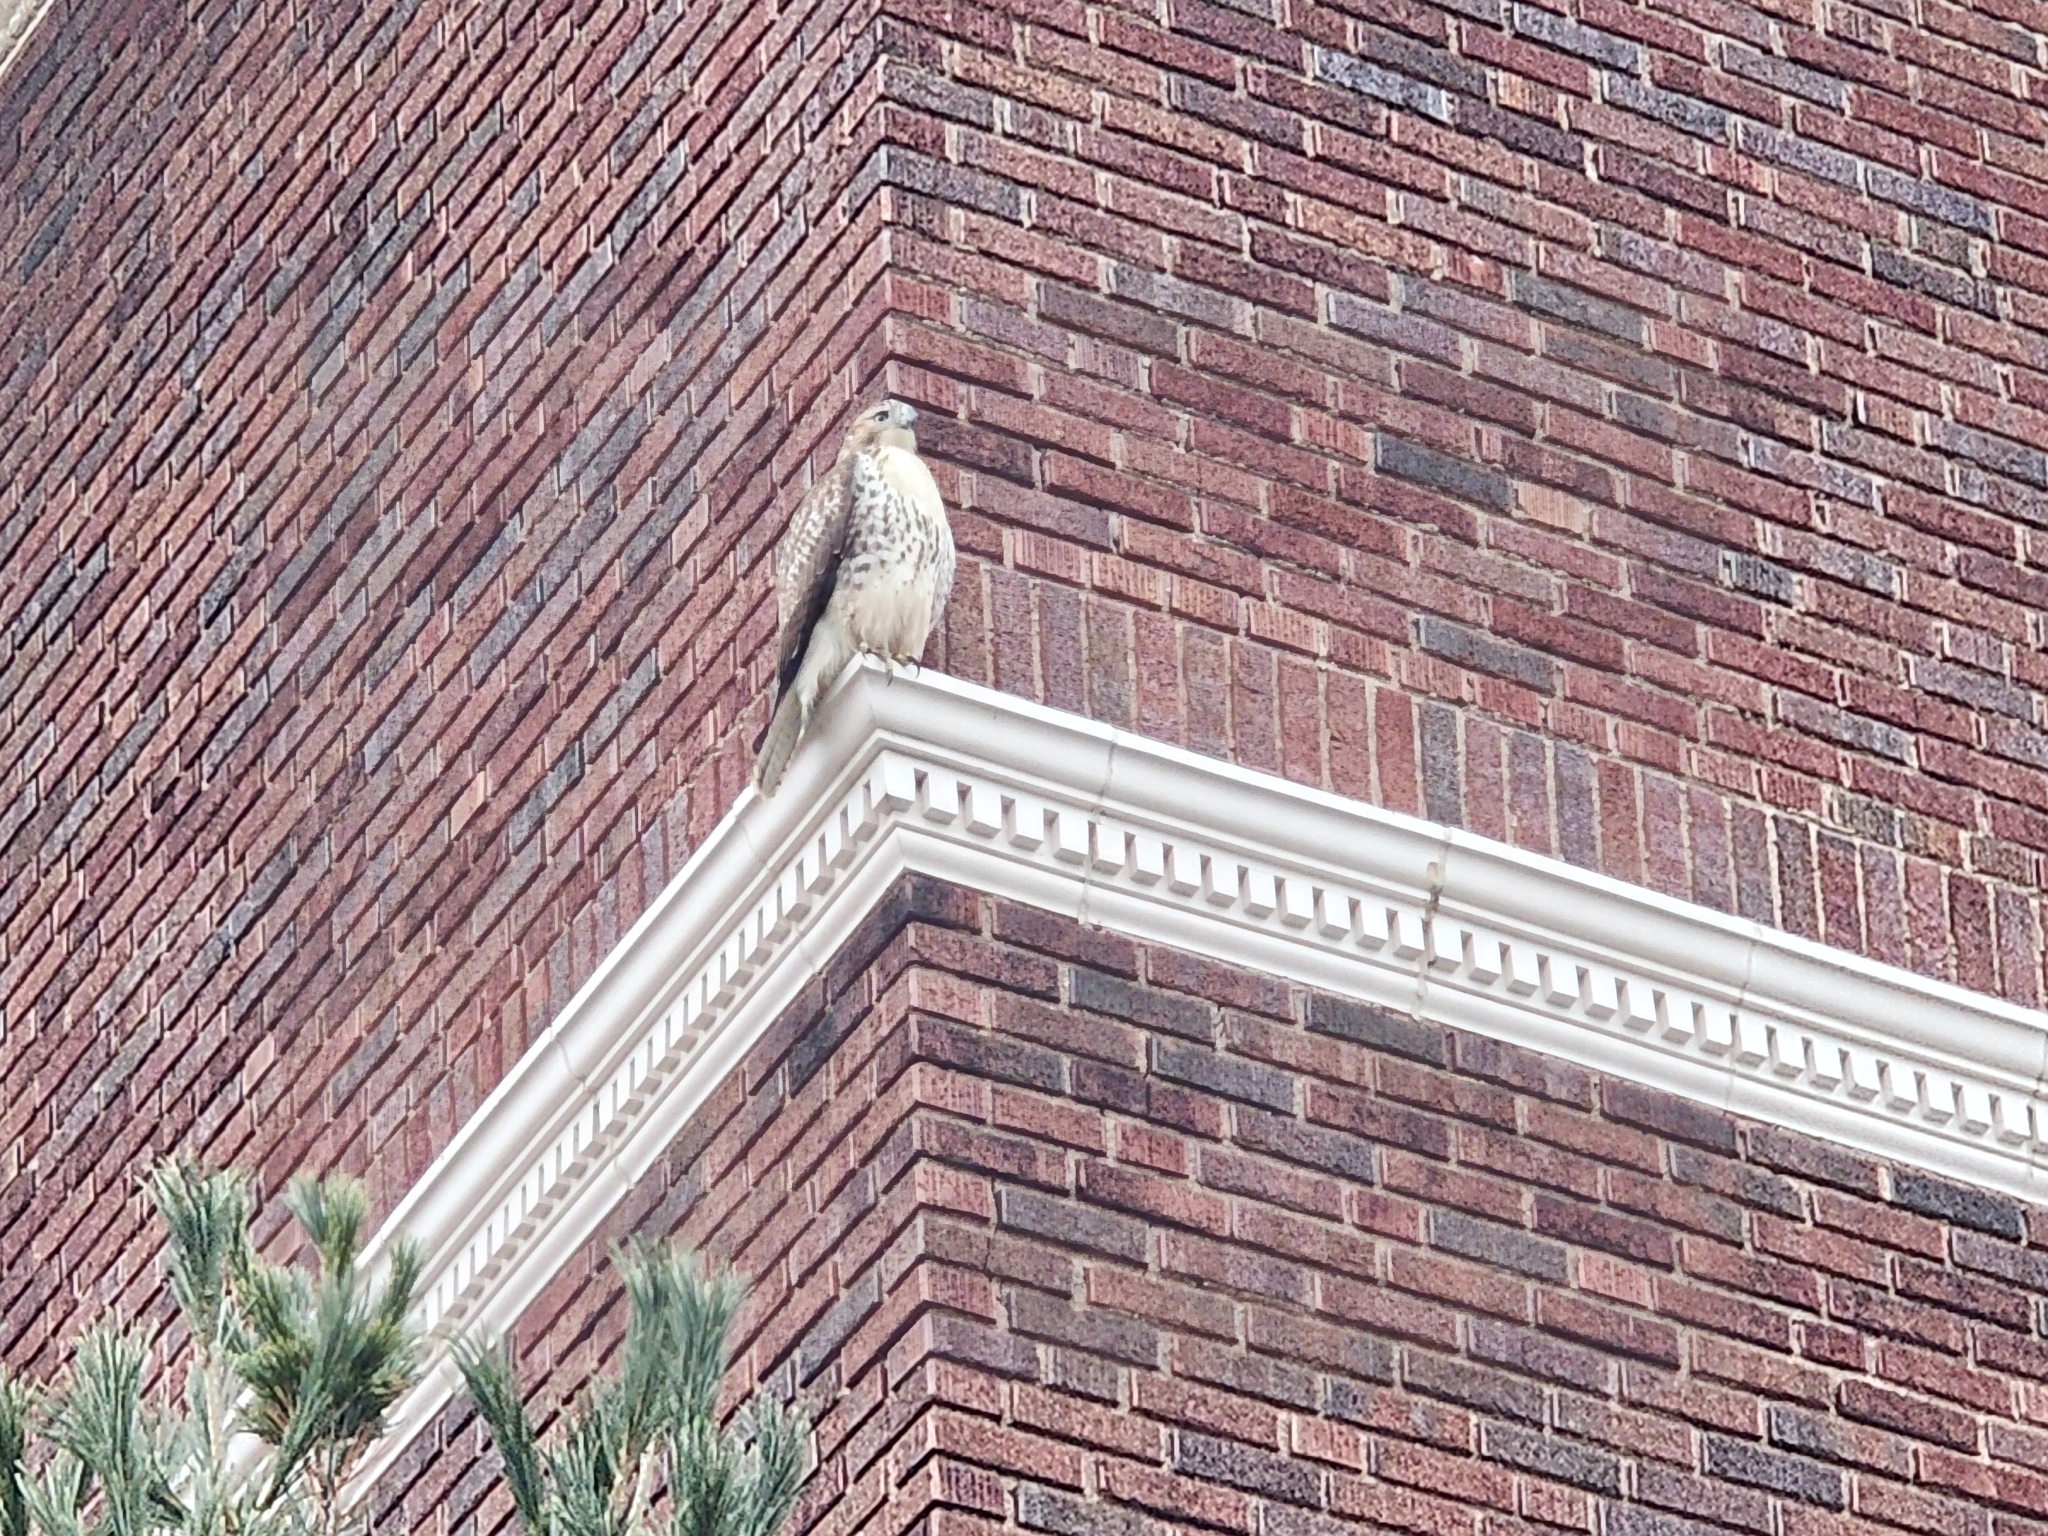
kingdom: Animalia
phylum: Chordata
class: Aves
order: Accipitriformes
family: Accipitridae
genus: Buteo
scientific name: Buteo jamaicensis
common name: Red-tailed hawk
